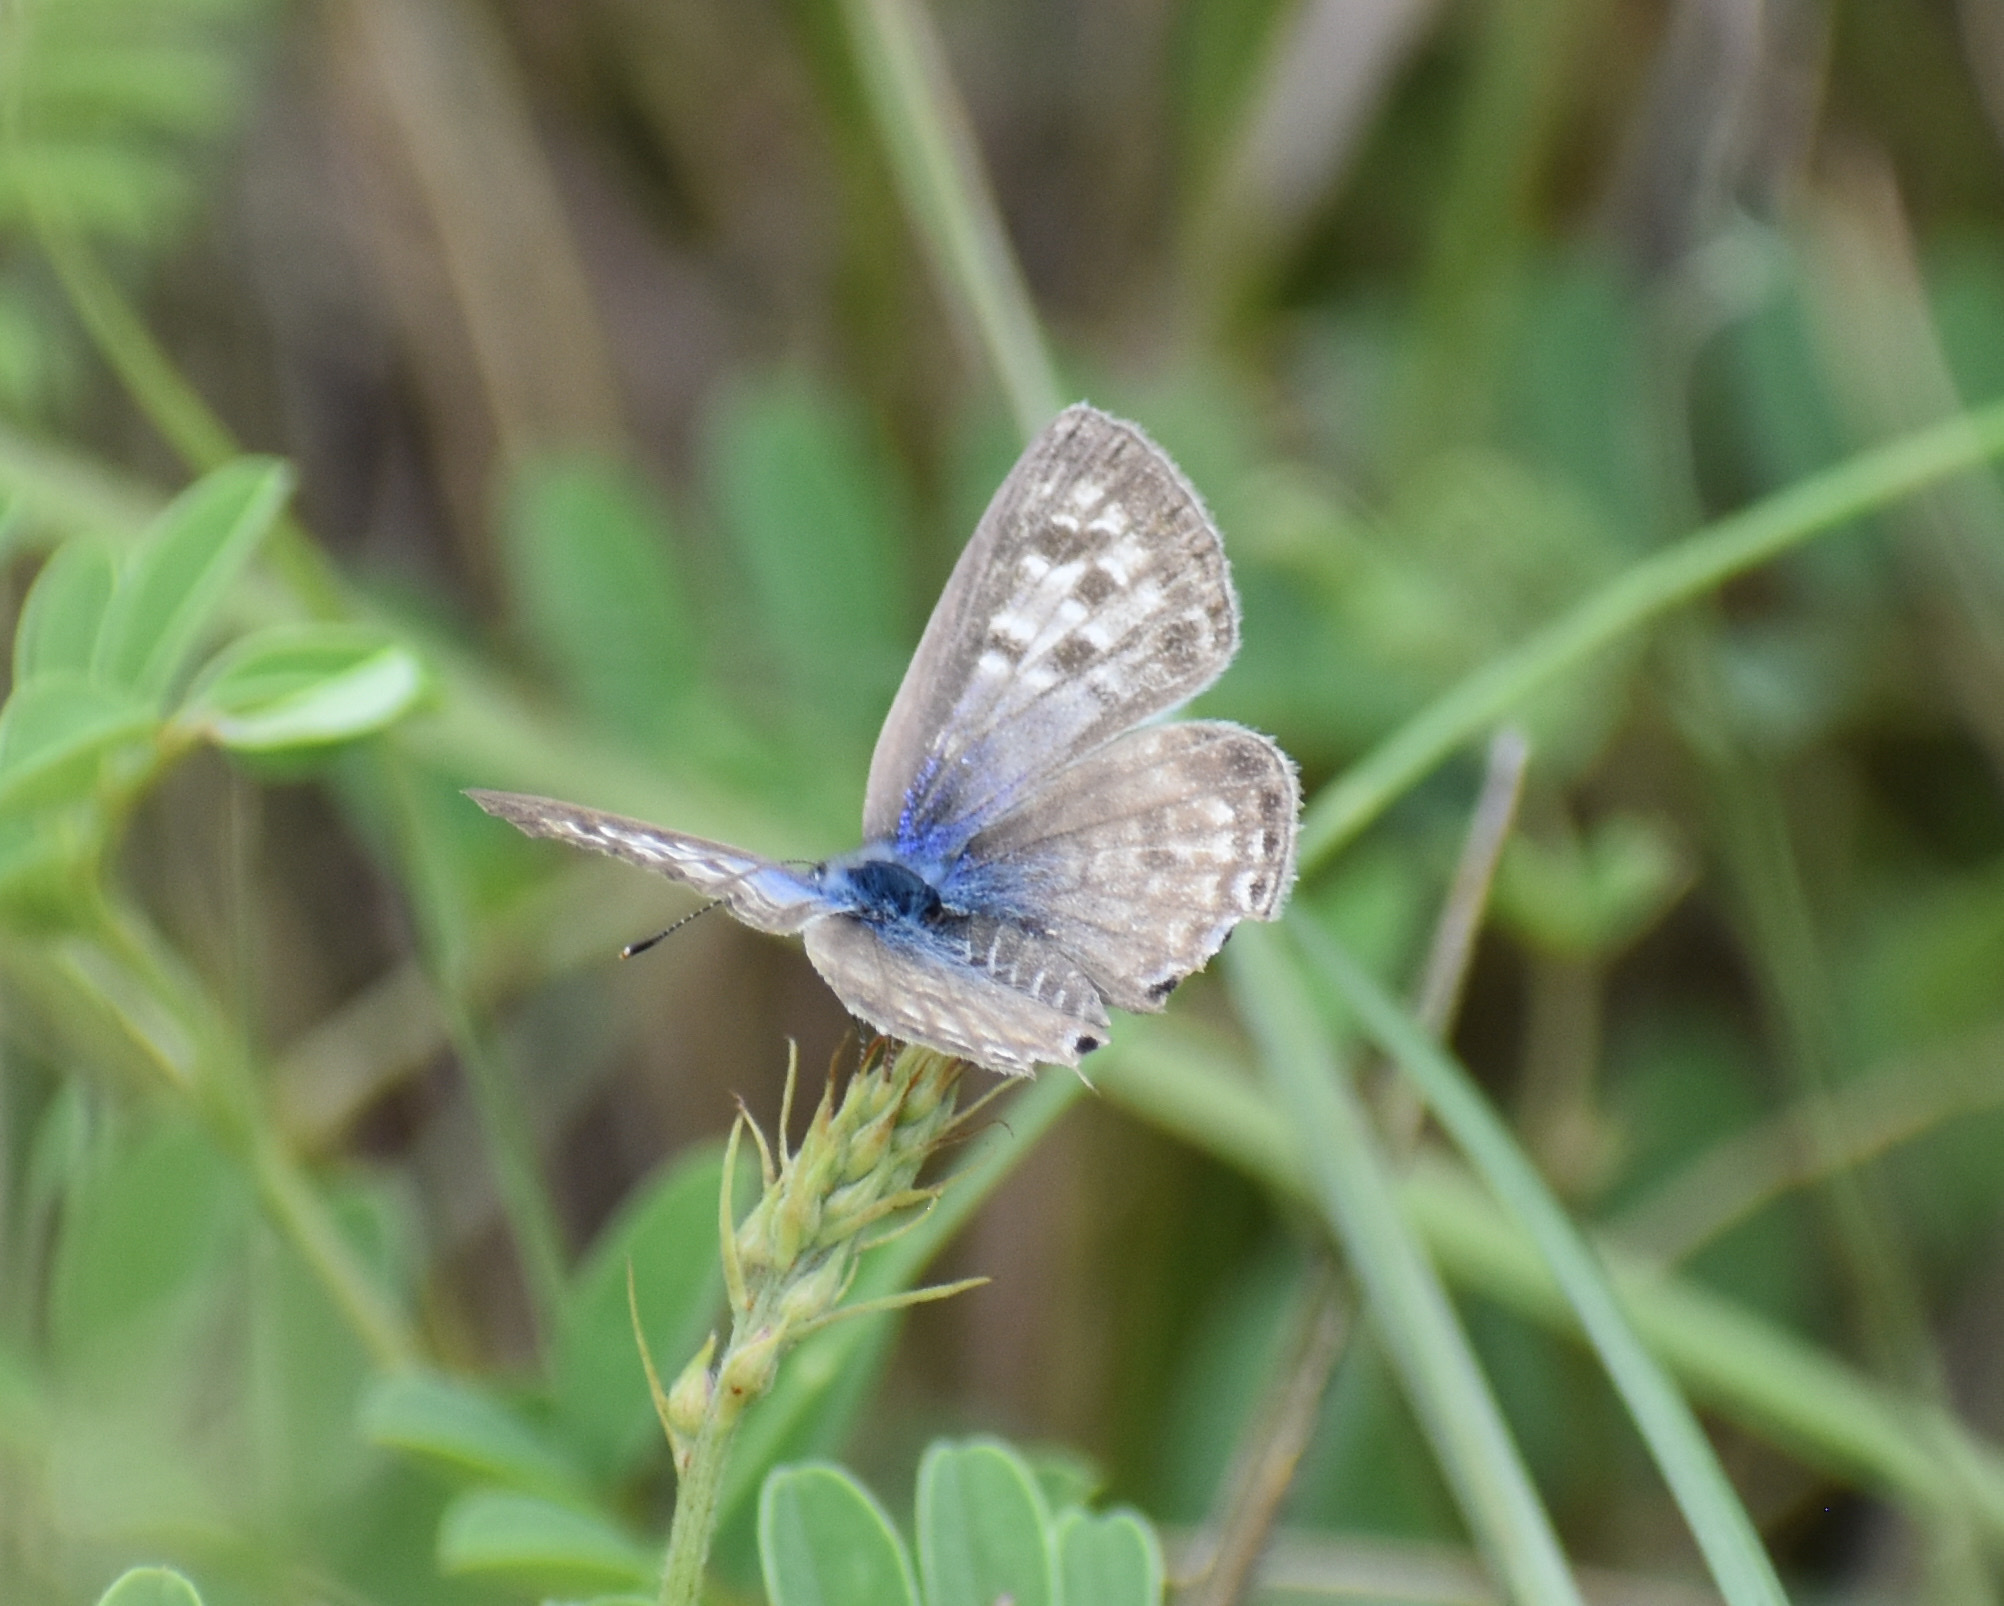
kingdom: Animalia
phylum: Arthropoda
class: Insecta
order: Lepidoptera
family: Lycaenidae
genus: Leptotes
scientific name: Leptotes
